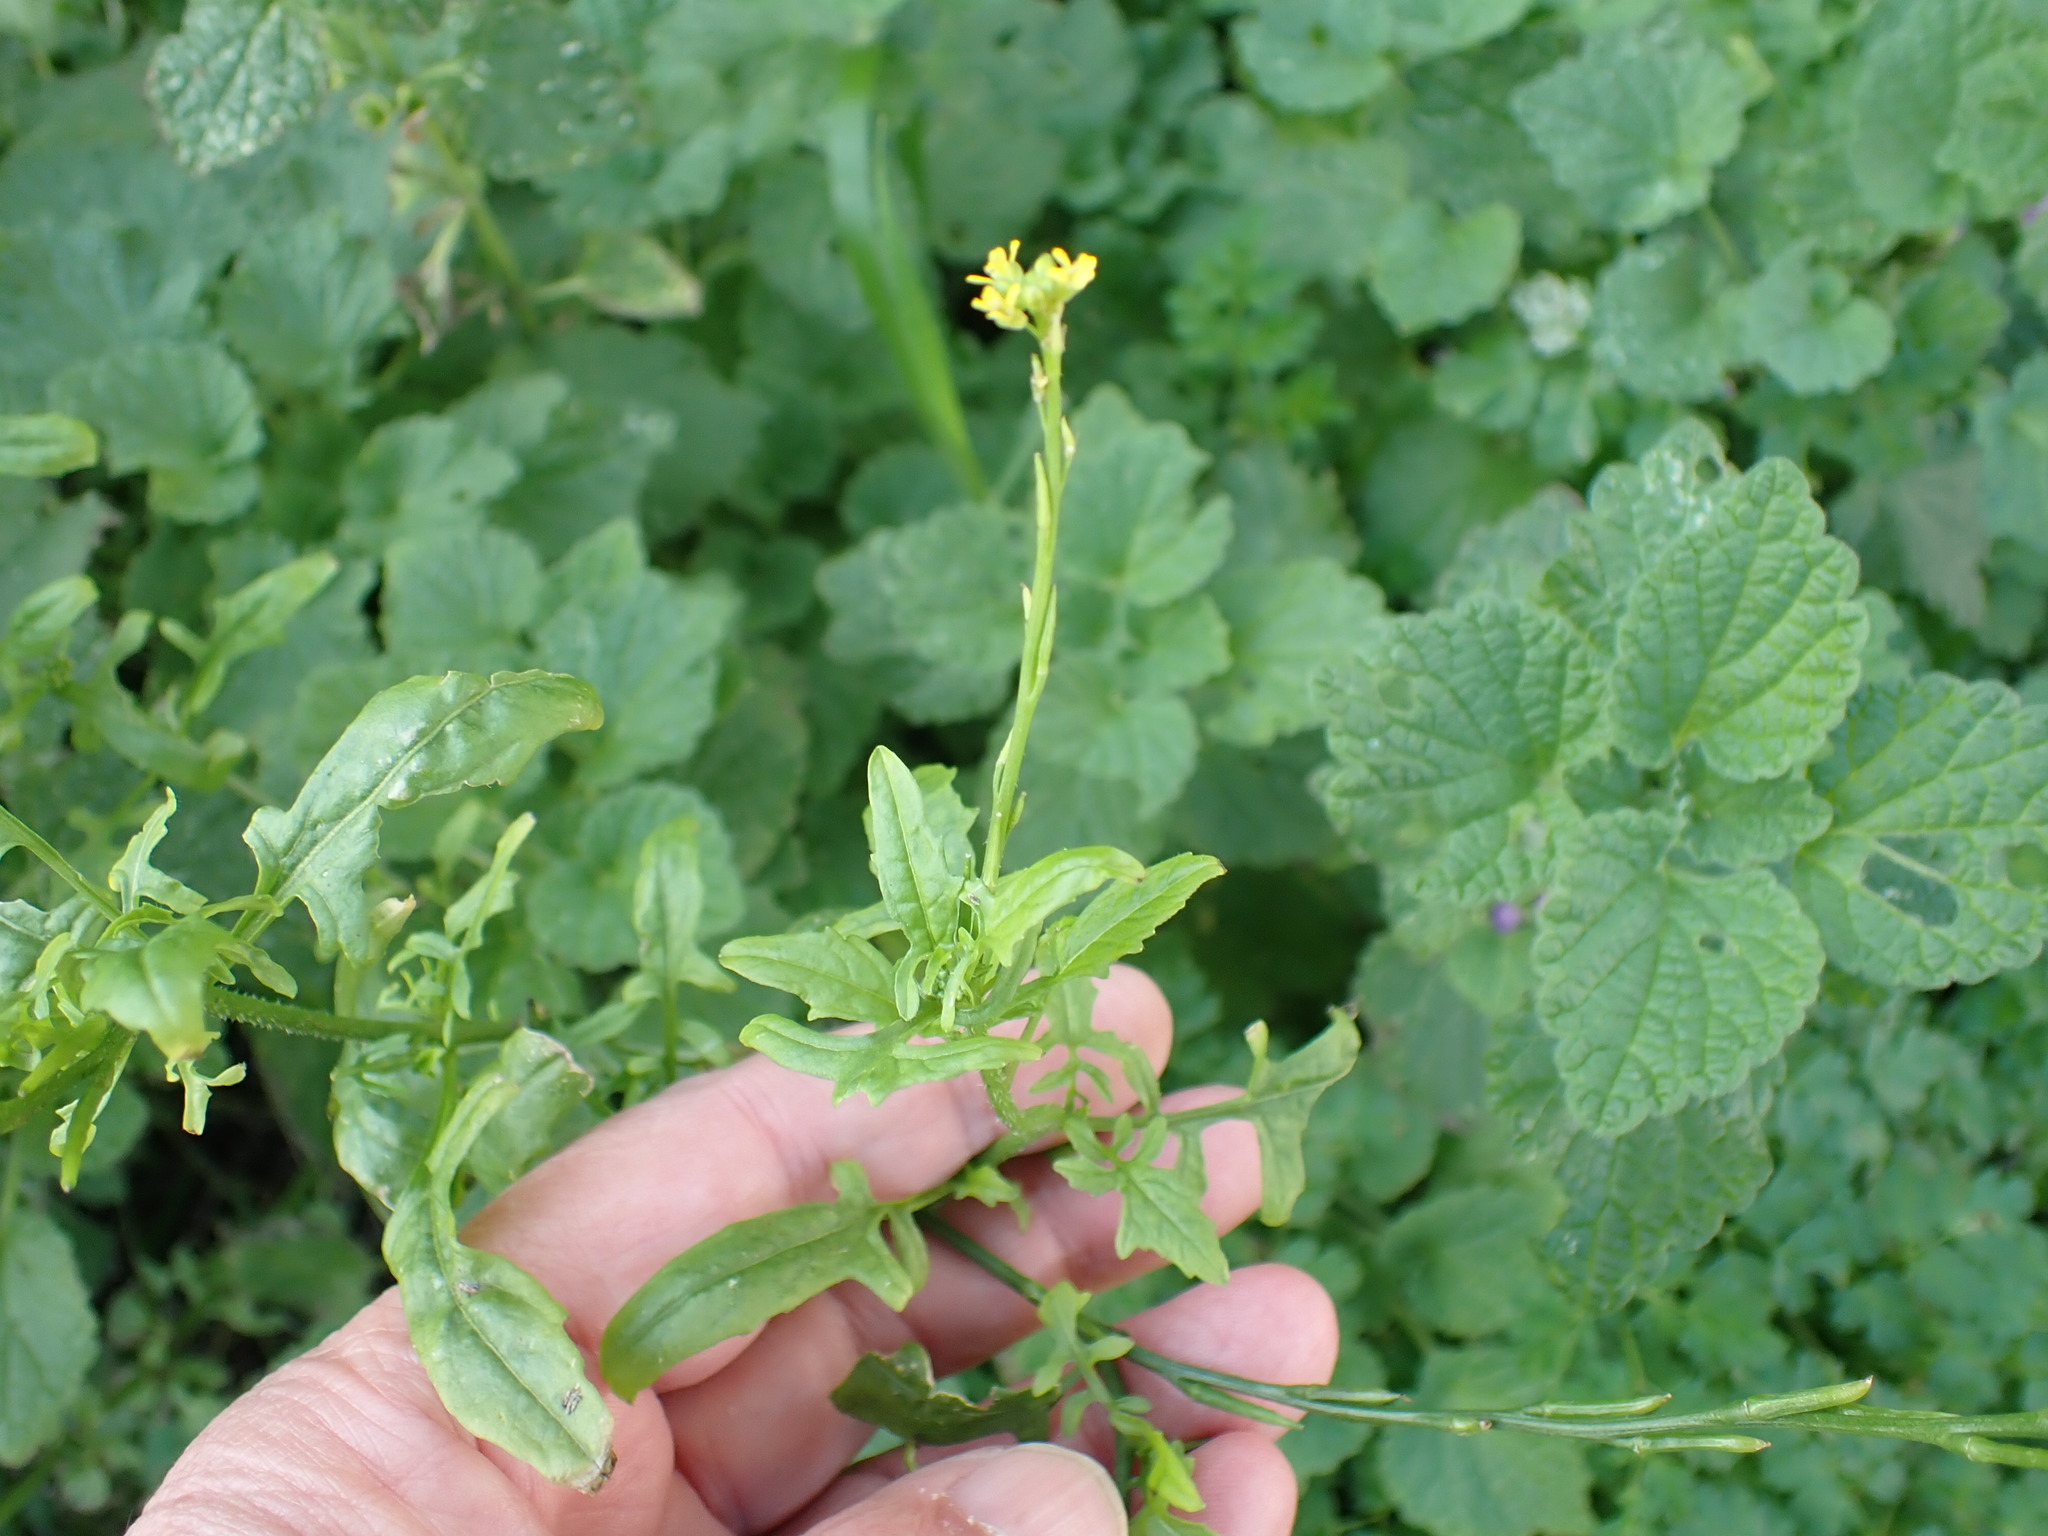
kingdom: Plantae
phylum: Tracheophyta
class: Magnoliopsida
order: Brassicales
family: Brassicaceae
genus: Sisymbrium
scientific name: Sisymbrium officinale
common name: Hedge mustard
